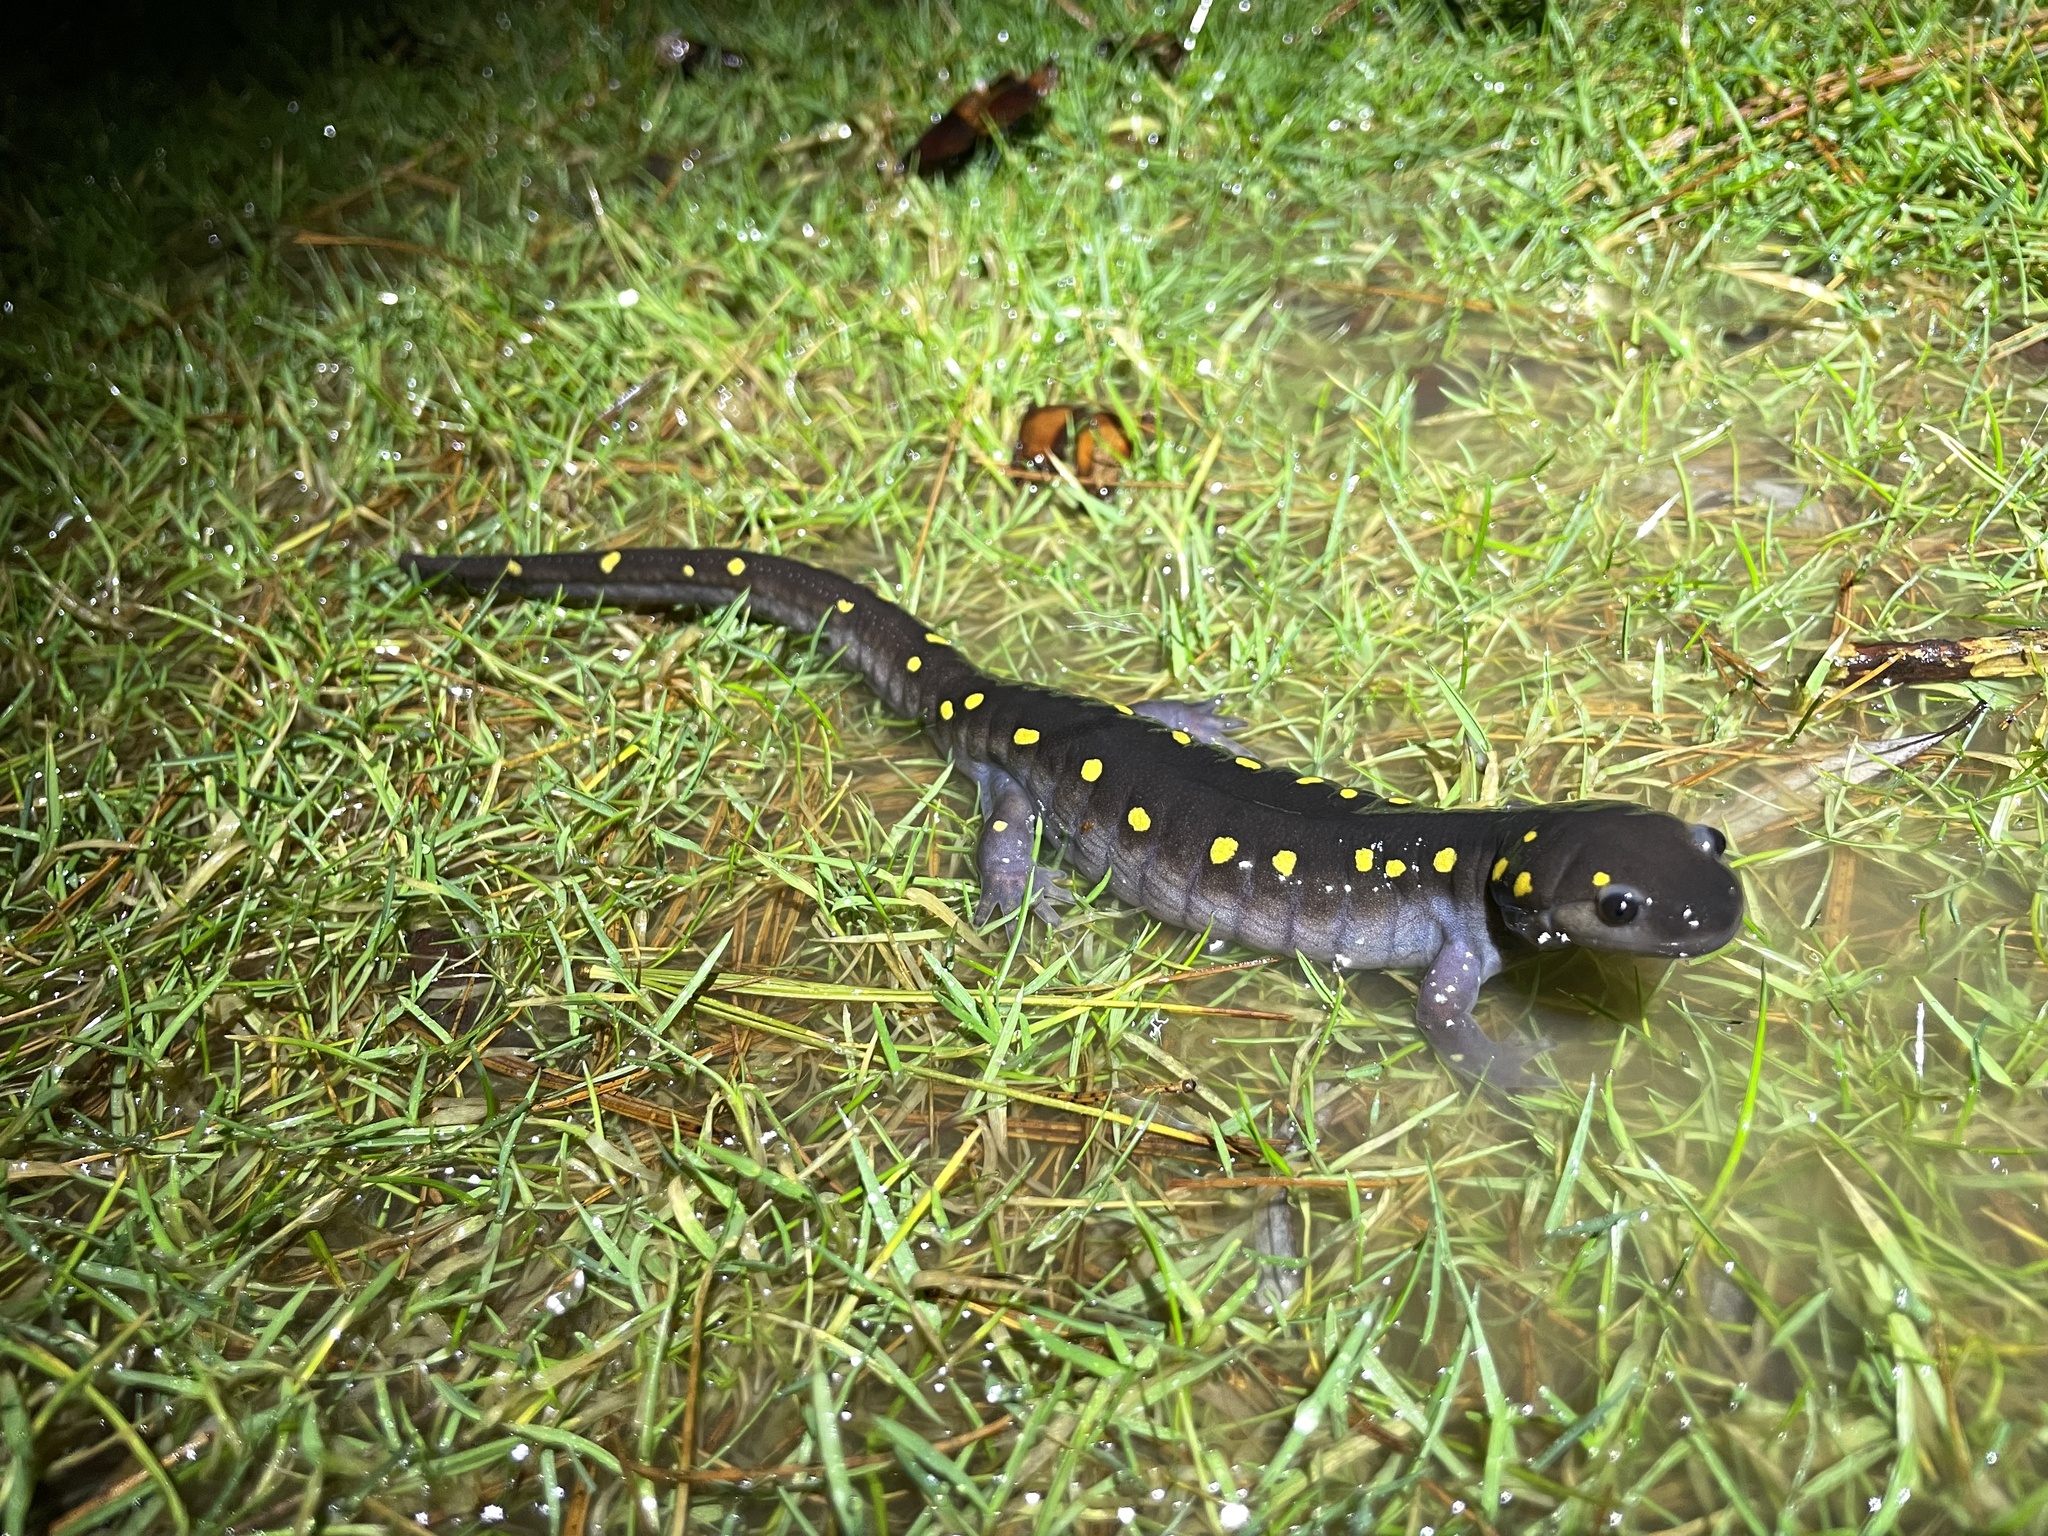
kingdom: Animalia
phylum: Chordata
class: Amphibia
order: Caudata
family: Ambystomatidae
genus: Ambystoma
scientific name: Ambystoma maculatum
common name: Spotted salamander
